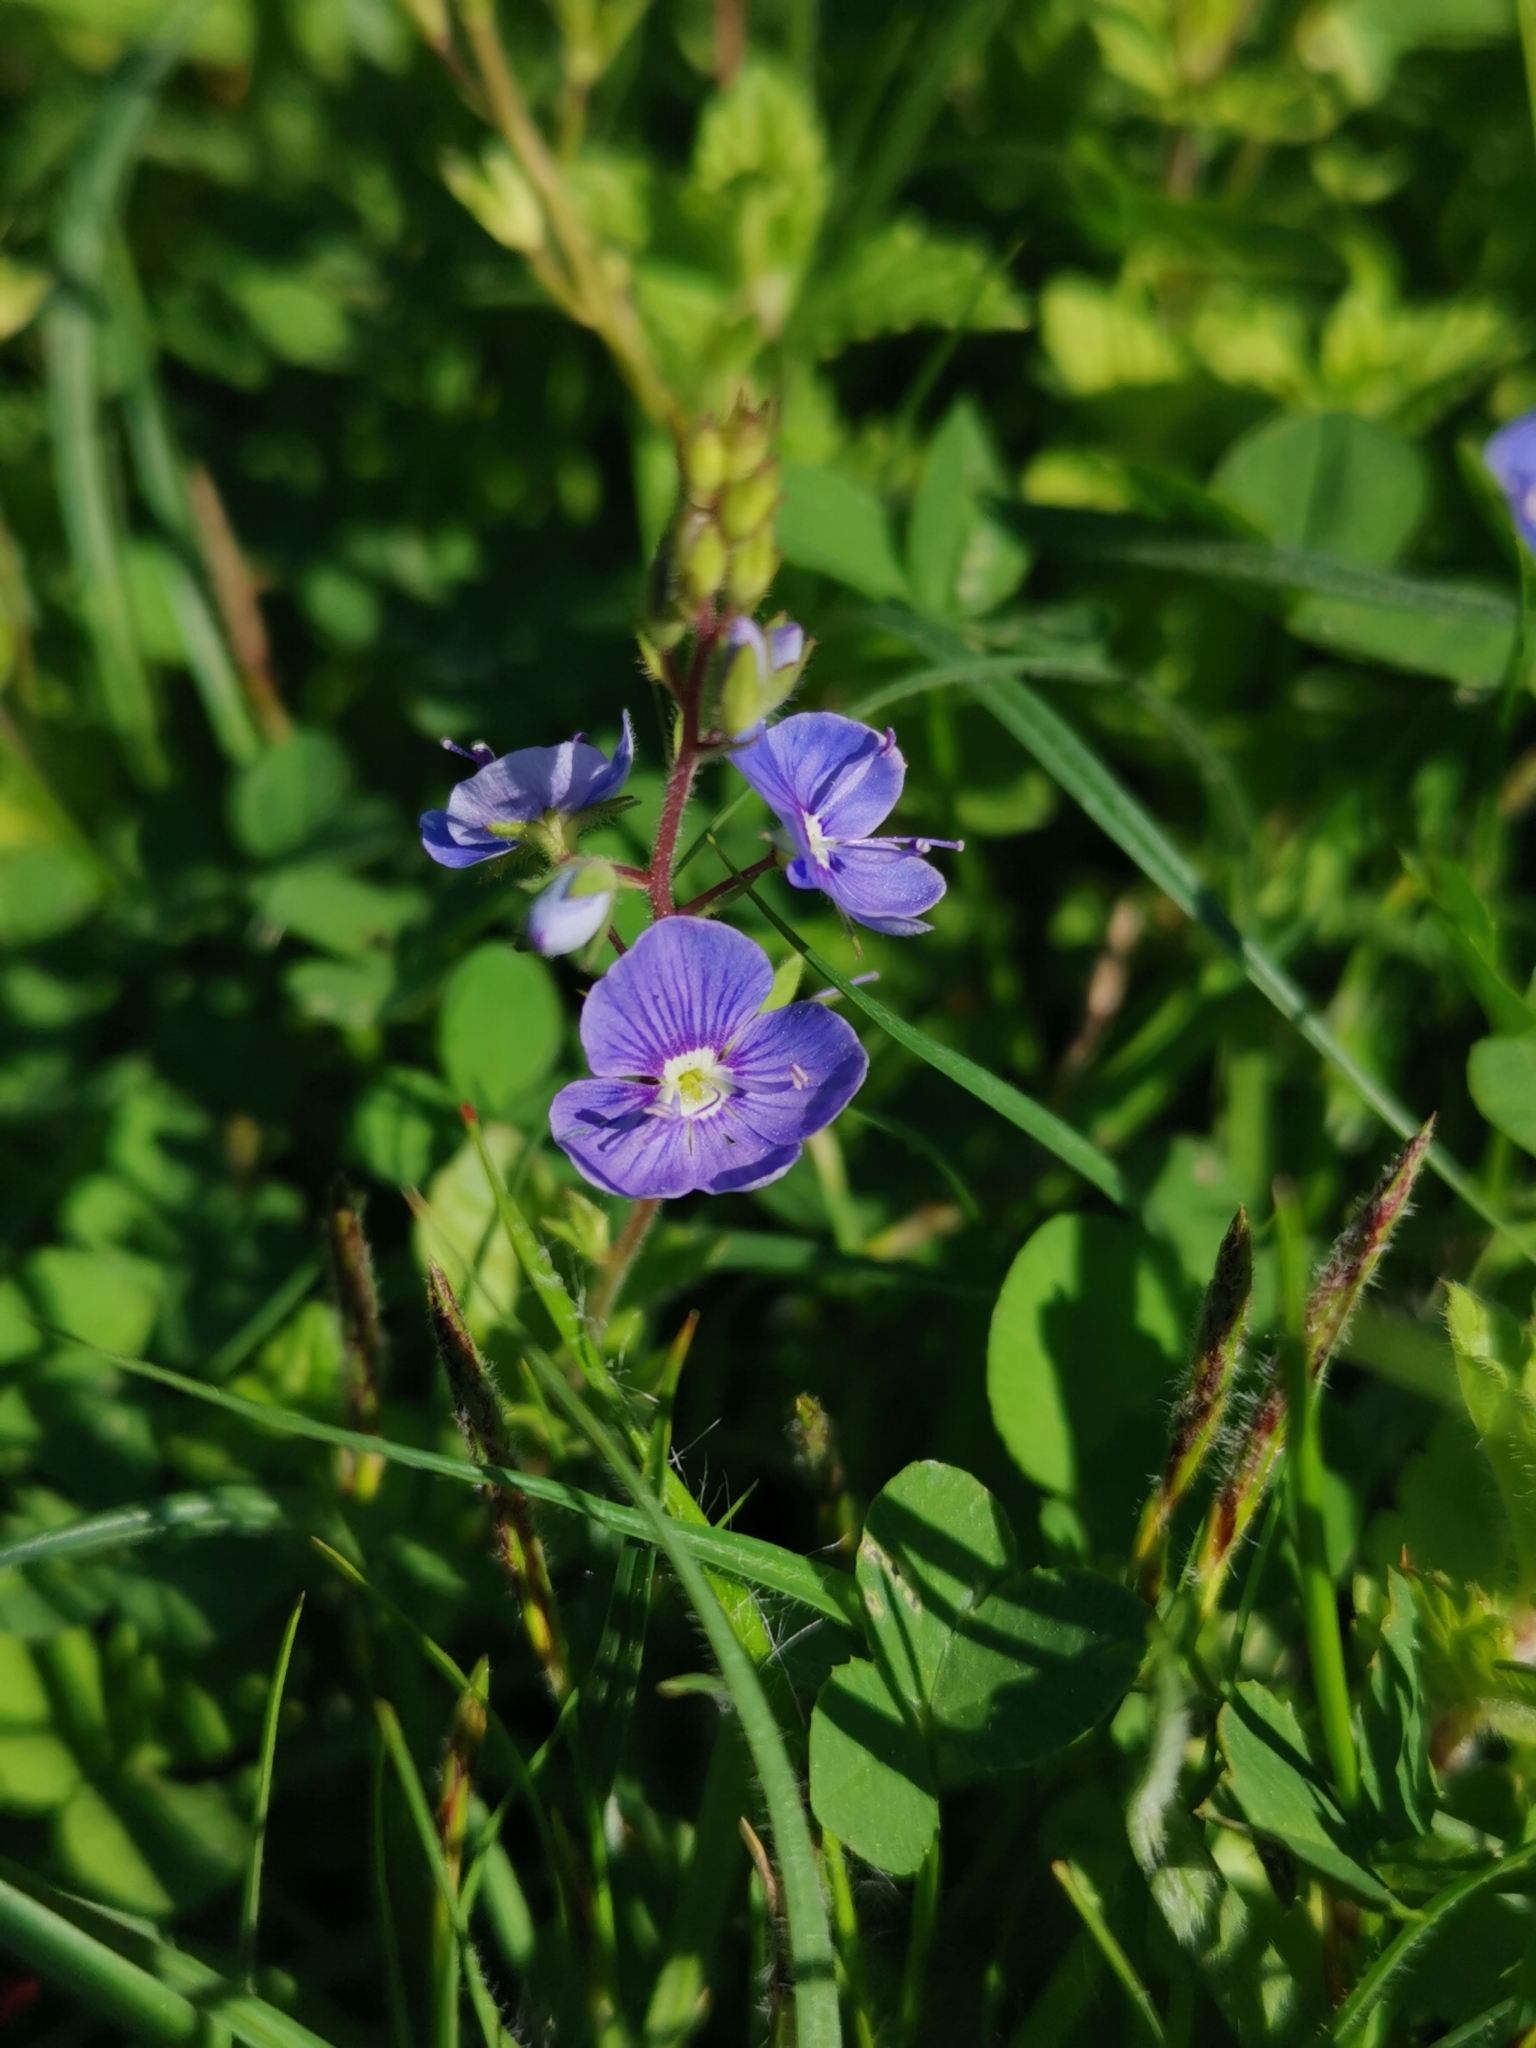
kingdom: Plantae
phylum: Tracheophyta
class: Magnoliopsida
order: Lamiales
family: Plantaginaceae
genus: Veronica
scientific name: Veronica chamaedrys
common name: Germander speedwell
